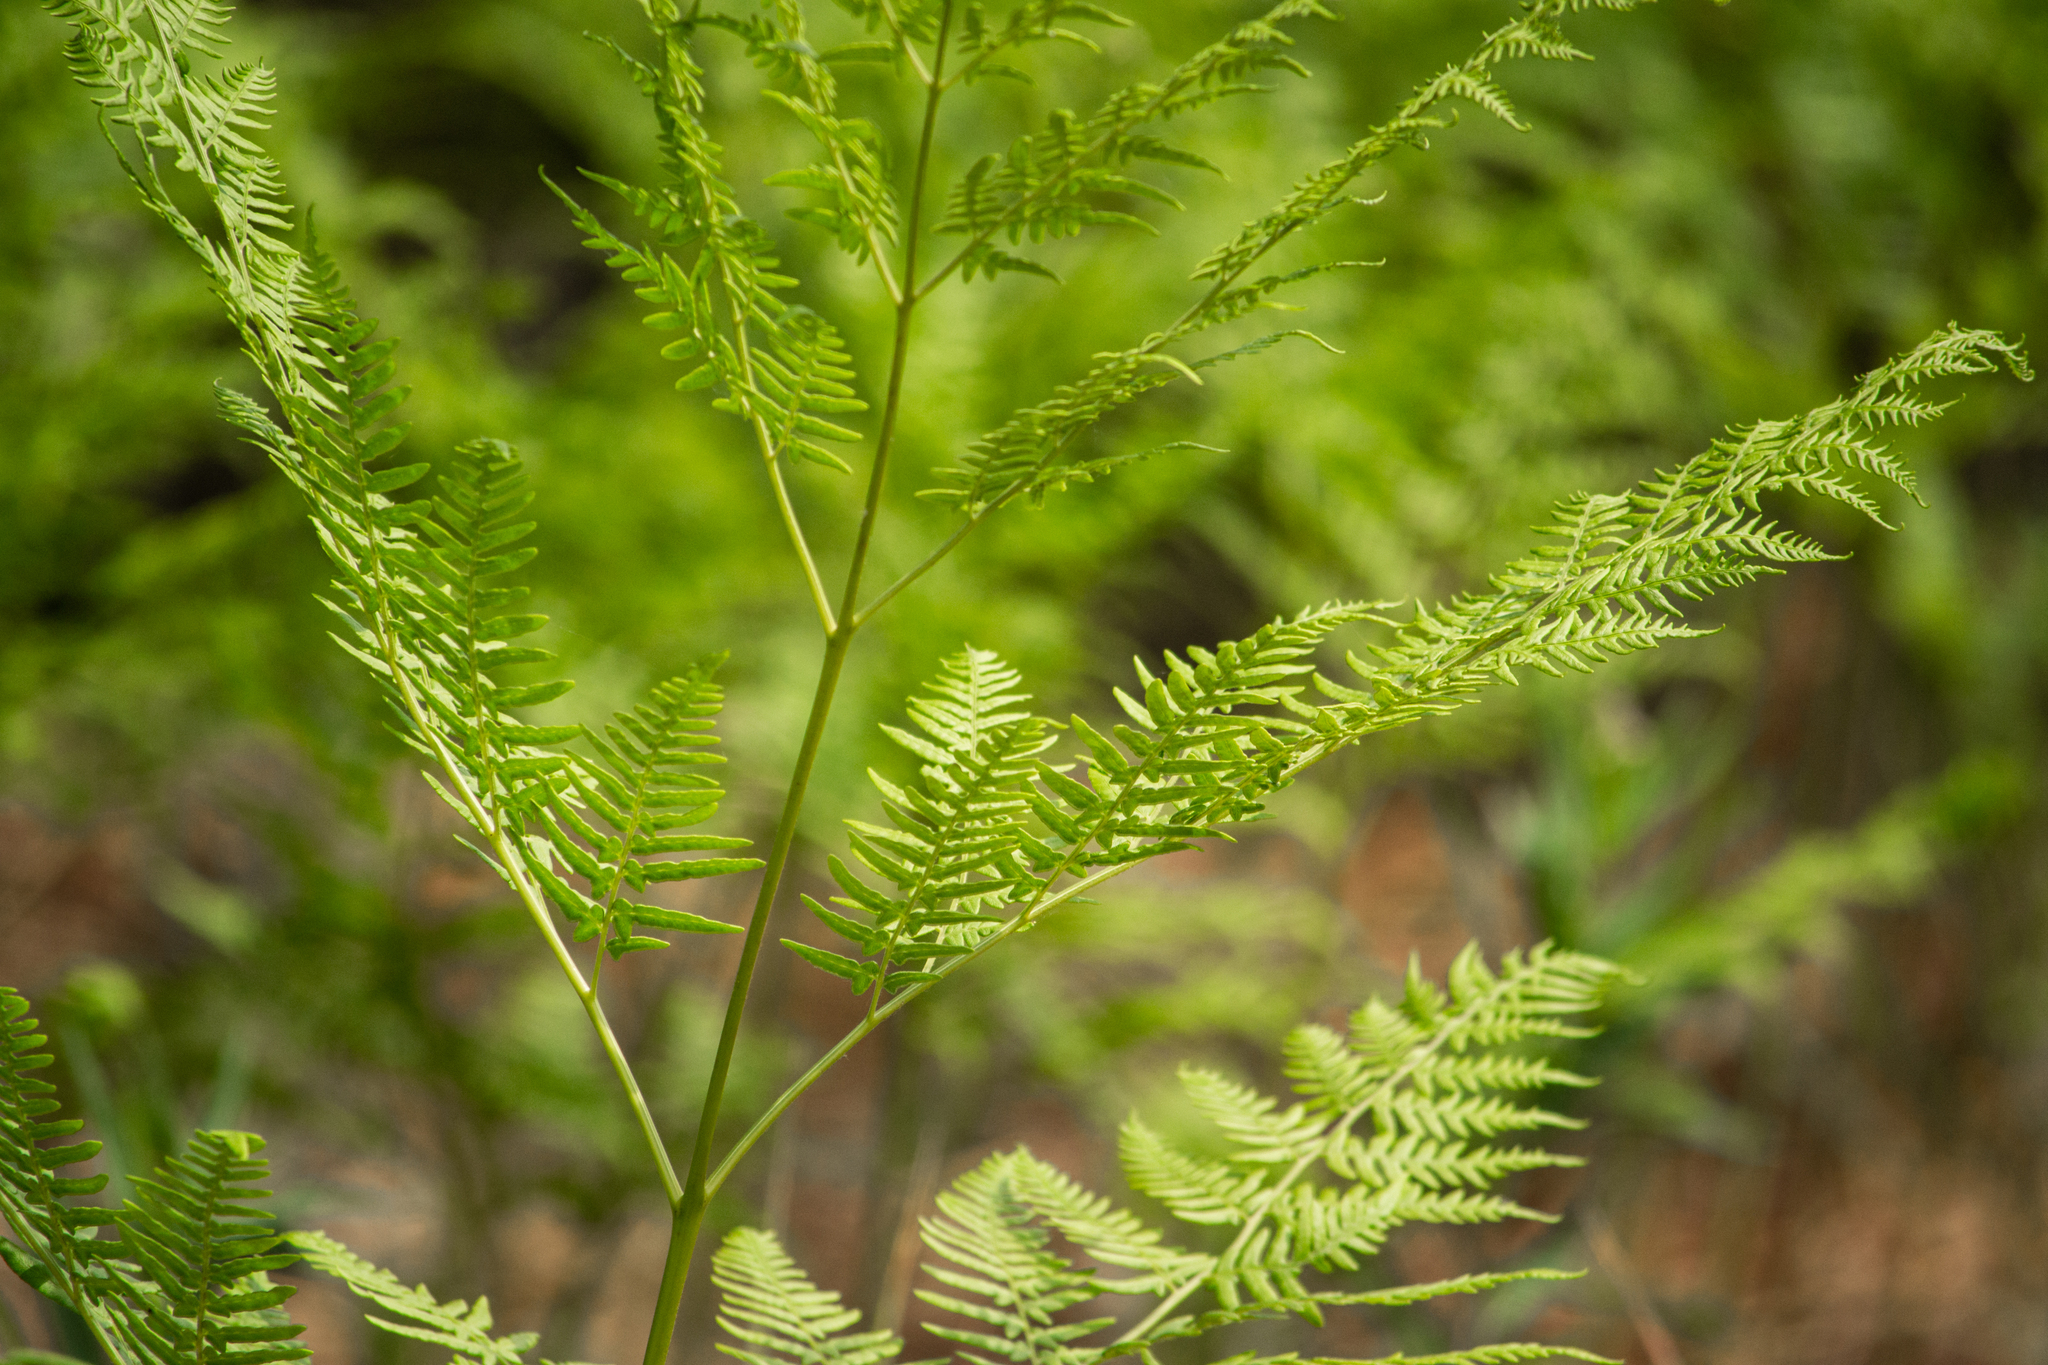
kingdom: Plantae
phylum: Tracheophyta
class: Polypodiopsida
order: Polypodiales
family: Dennstaedtiaceae
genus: Pteridium
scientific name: Pteridium aquilinum
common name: Bracken
